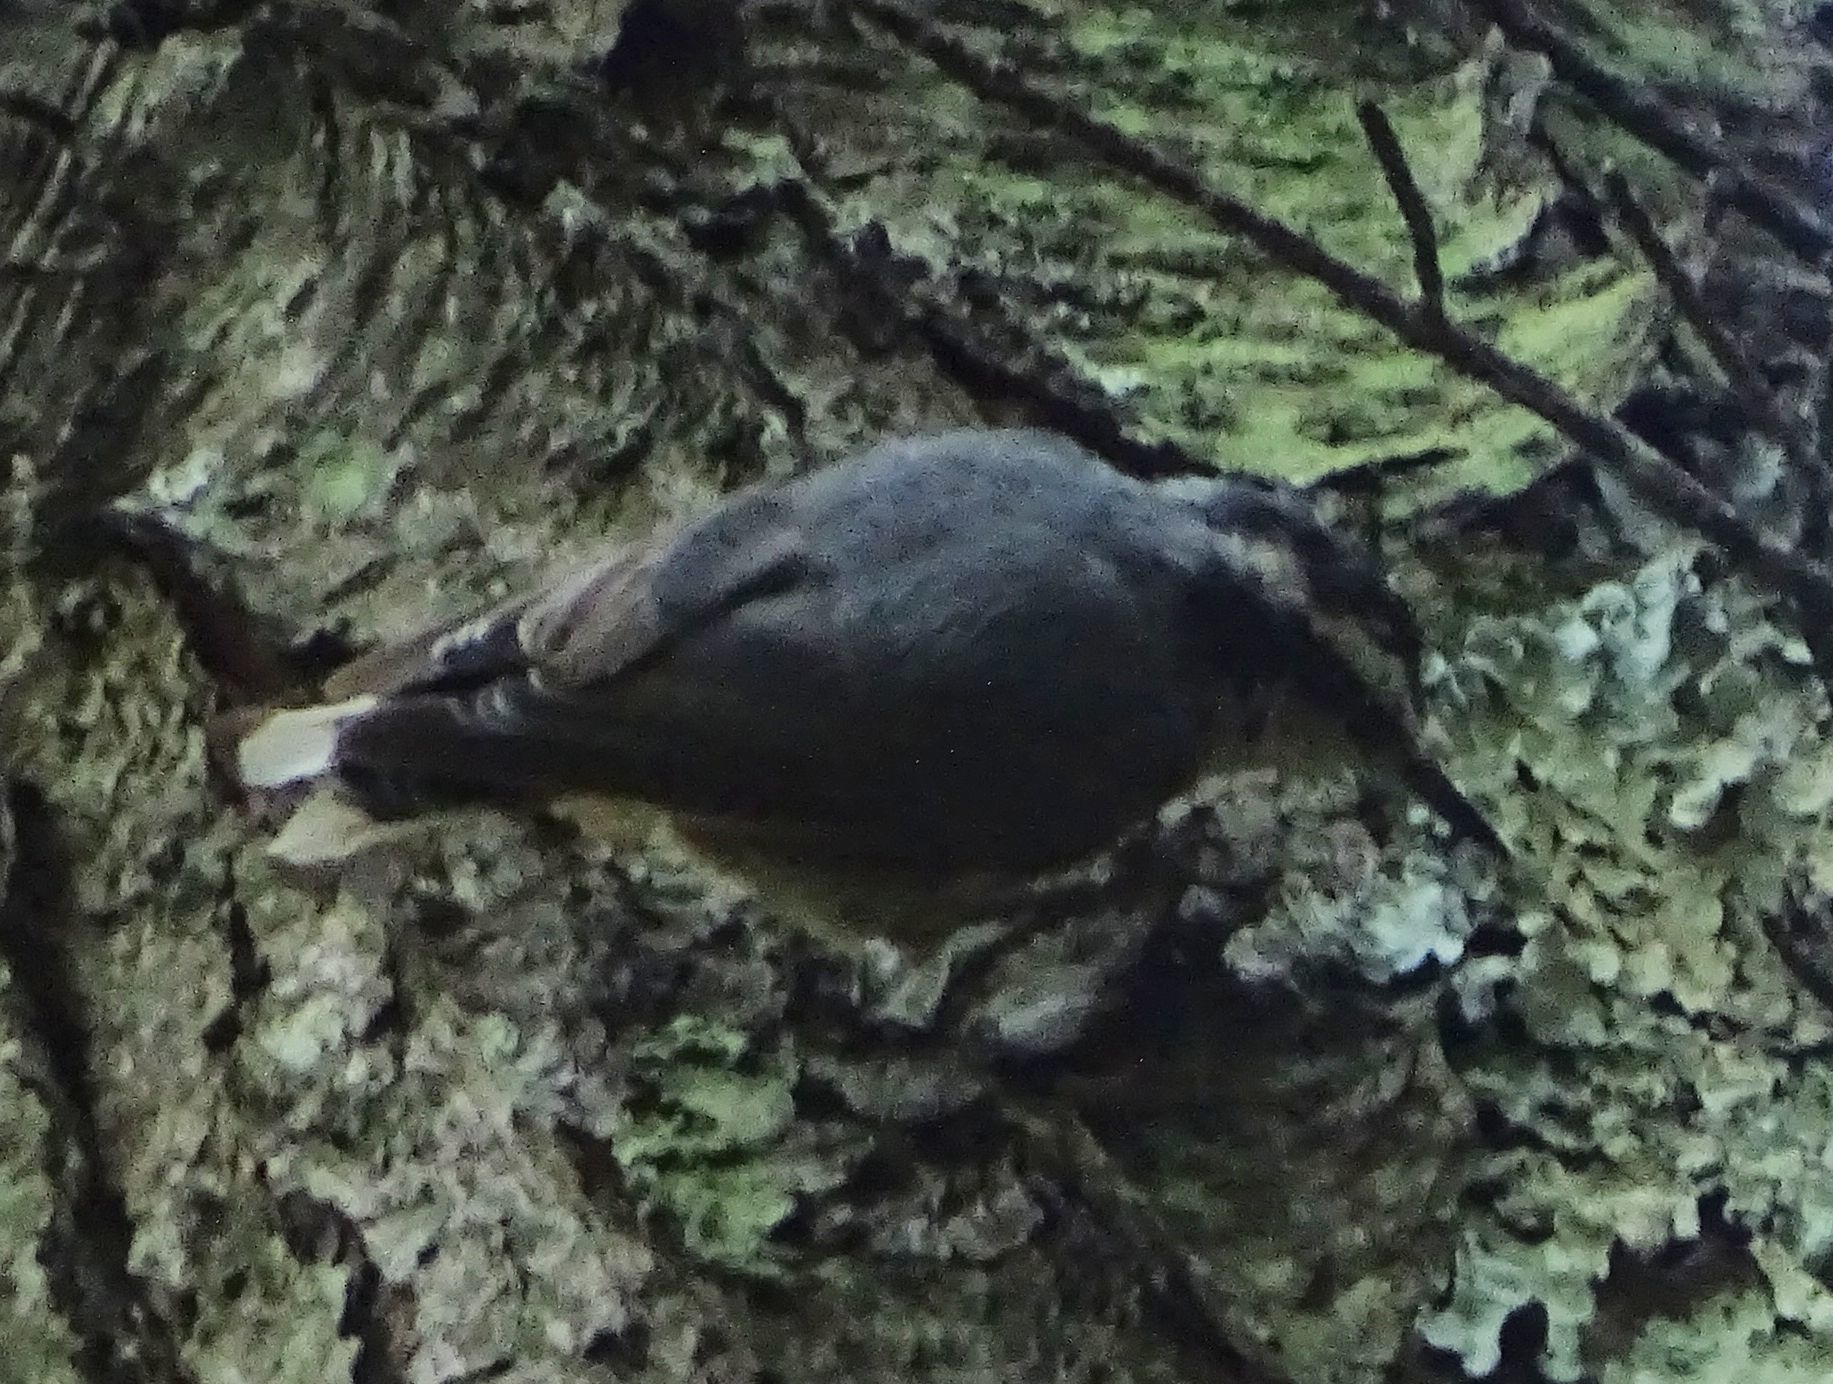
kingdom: Animalia
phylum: Chordata
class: Aves
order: Passeriformes
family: Sittidae
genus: Sitta
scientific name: Sitta canadensis
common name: Red-breasted nuthatch
